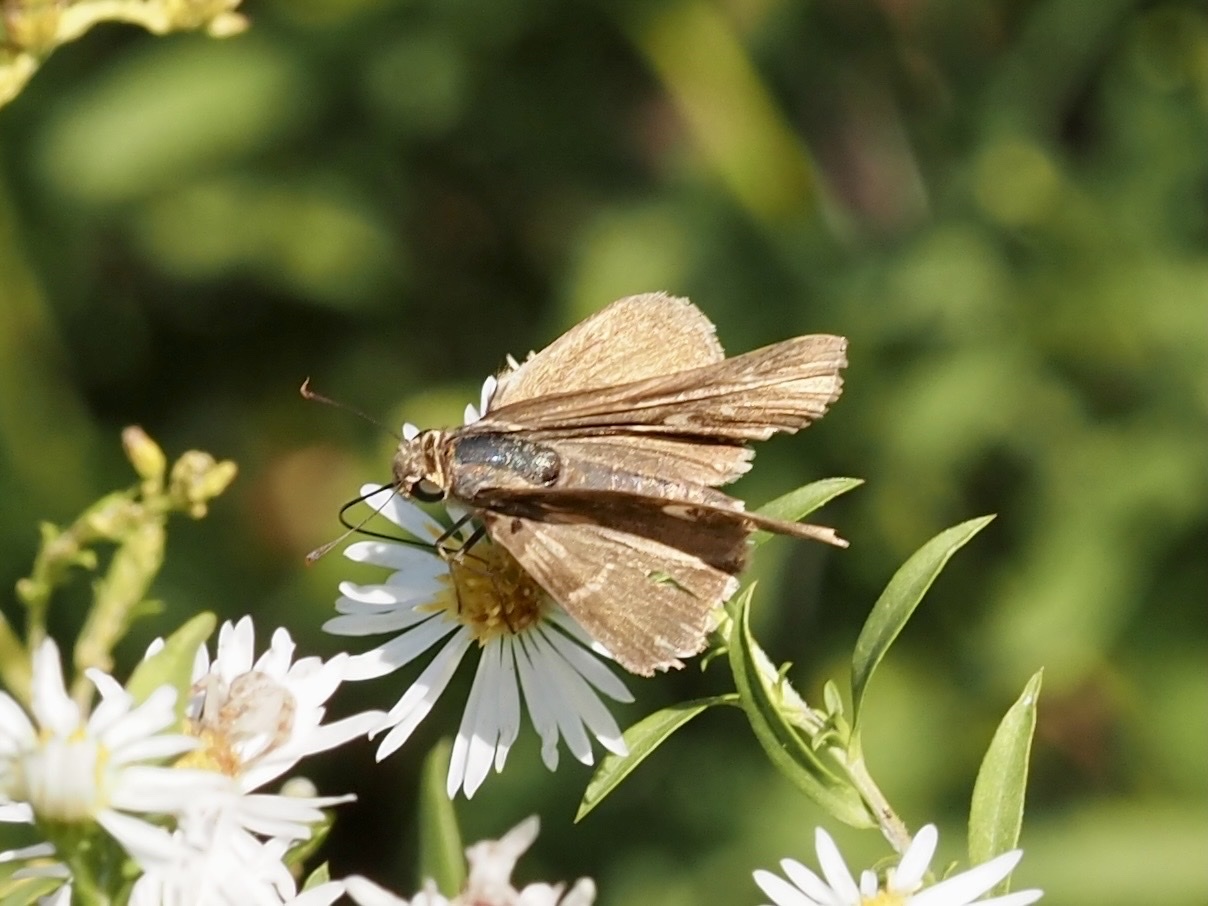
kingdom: Animalia
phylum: Arthropoda
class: Insecta
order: Lepidoptera
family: Hesperiidae
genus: Panoquina
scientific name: Panoquina ocola
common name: Ocola skipper
